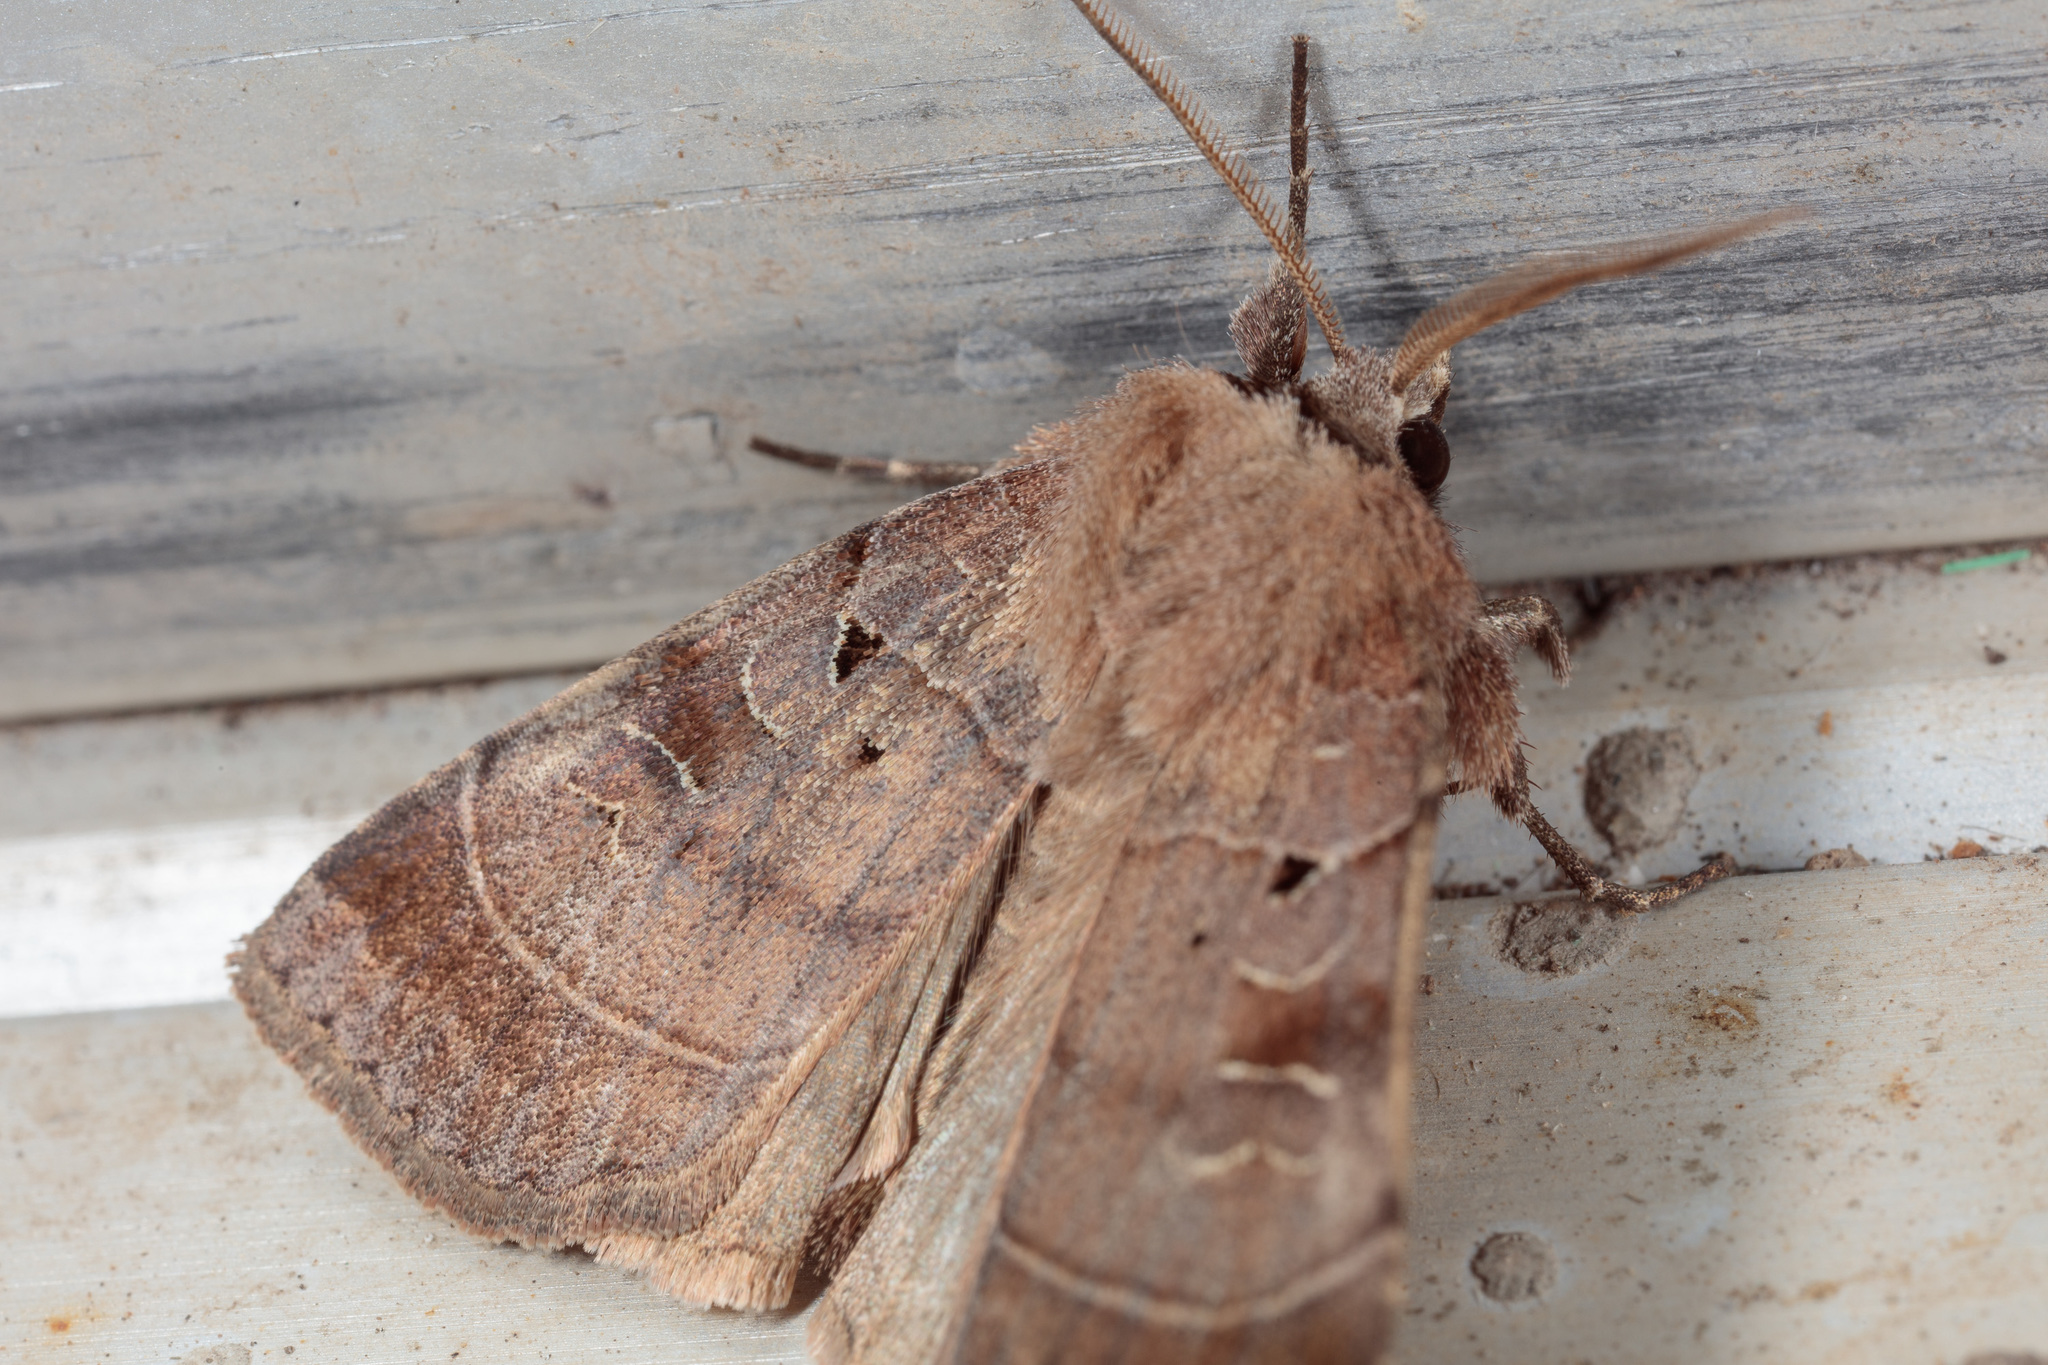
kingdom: Animalia
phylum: Arthropoda
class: Insecta
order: Lepidoptera
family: Noctuidae
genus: Agnorisma
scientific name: Agnorisma badinodis
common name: Pale-banded dart
